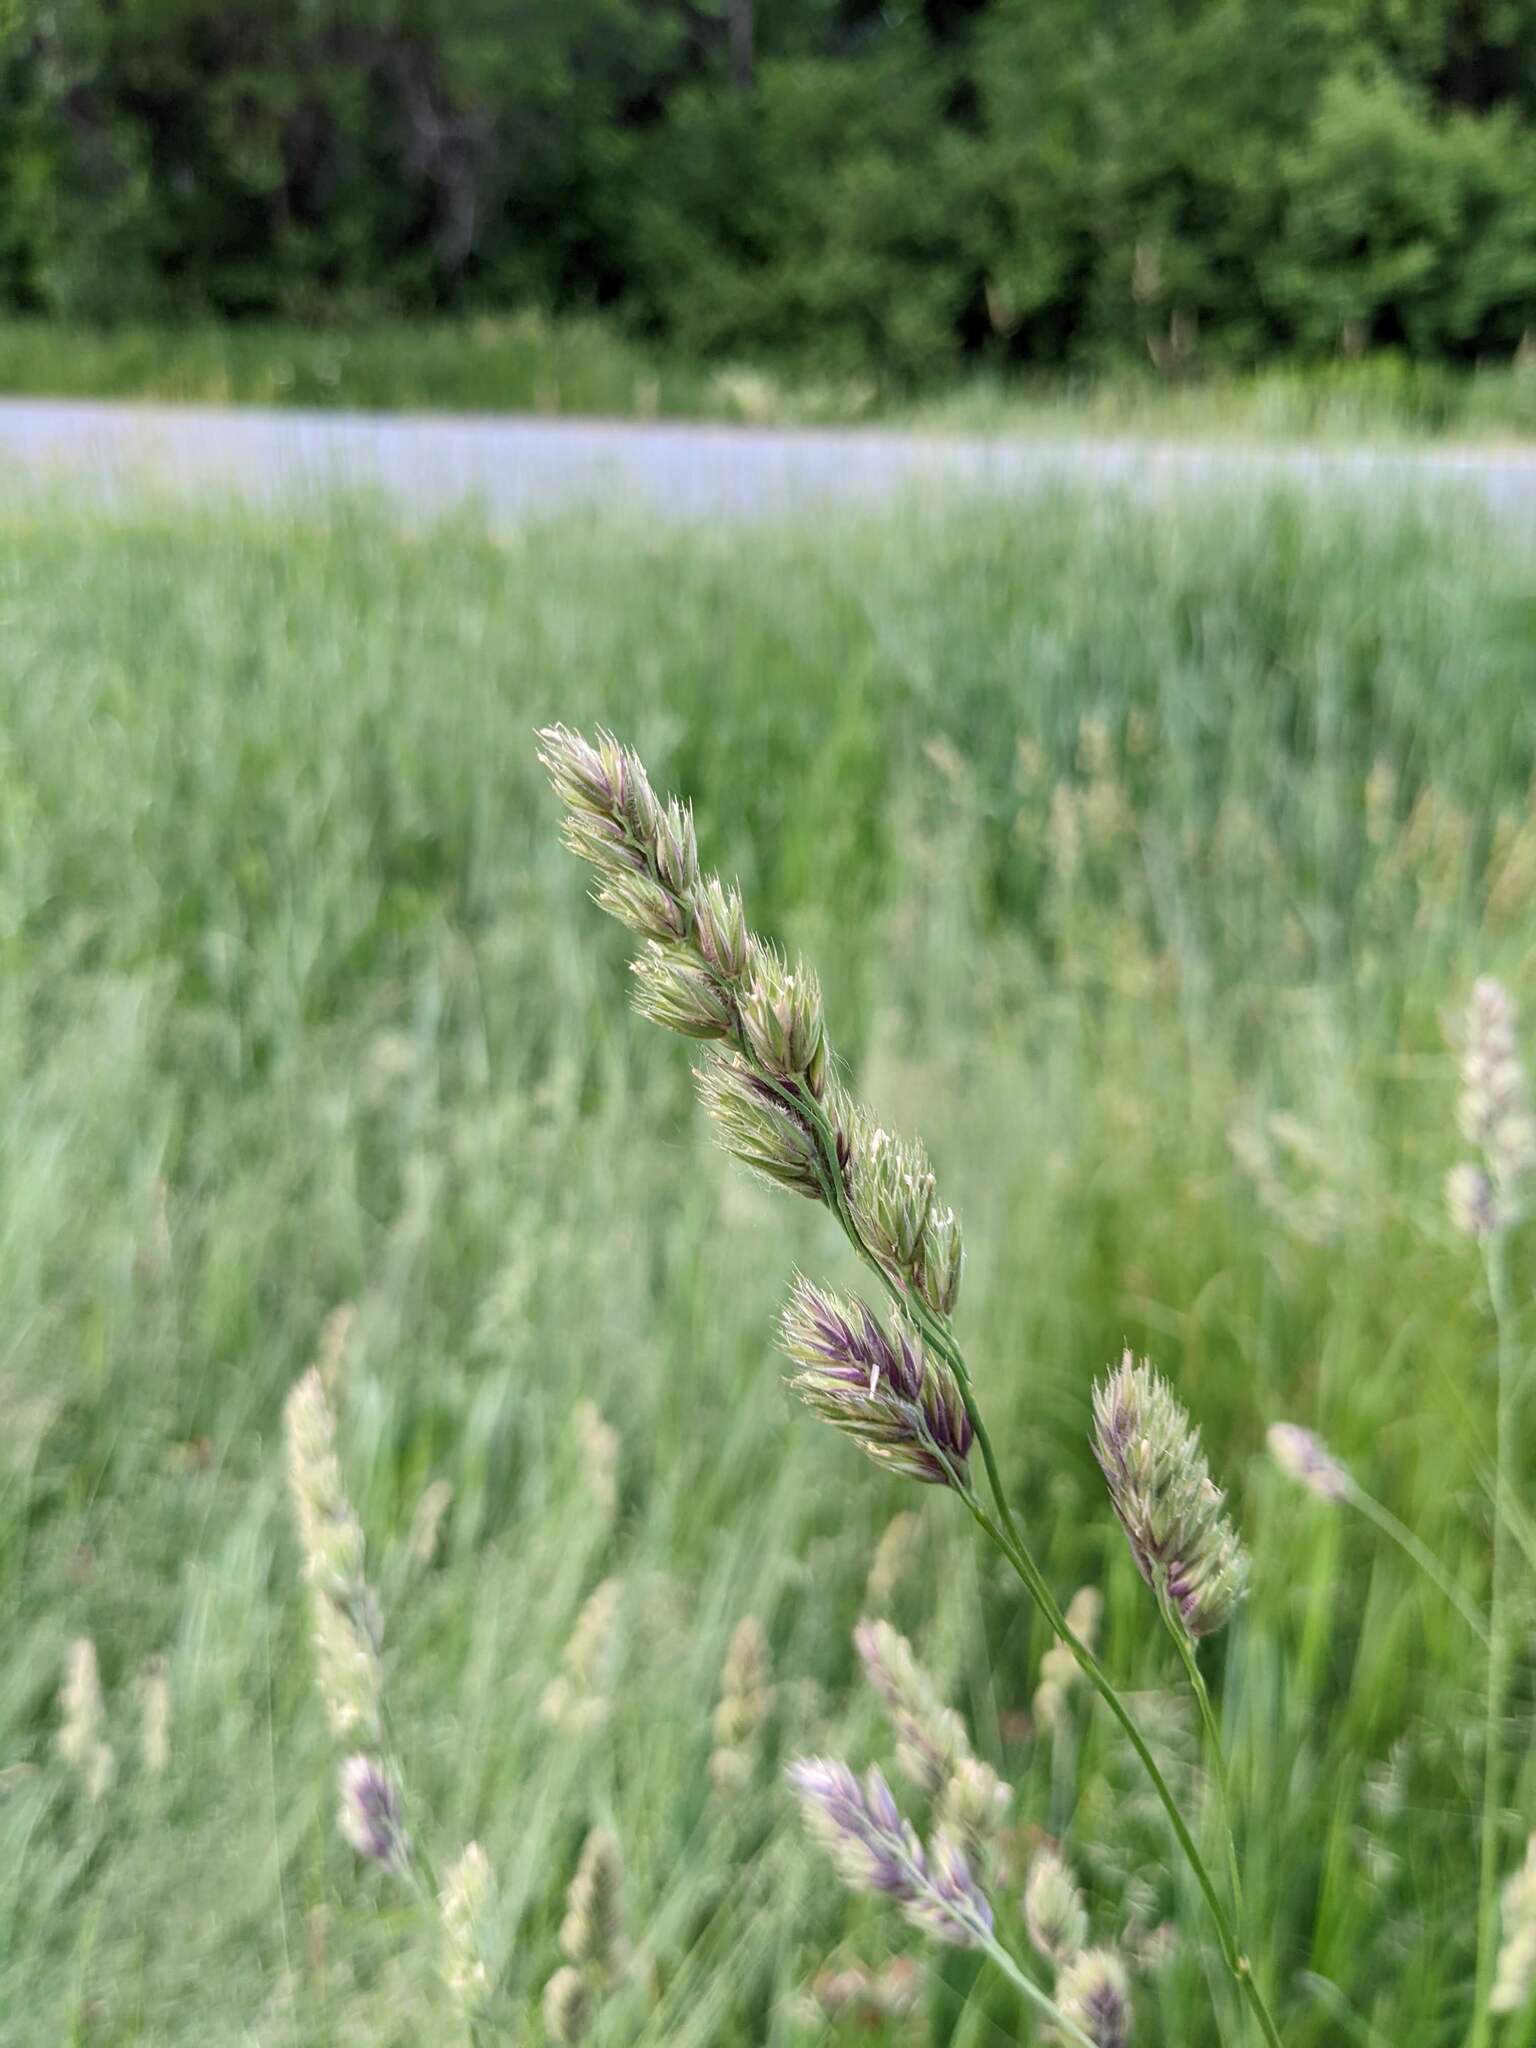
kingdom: Plantae
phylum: Tracheophyta
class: Liliopsida
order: Poales
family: Poaceae
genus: Dactylis
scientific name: Dactylis glomerata
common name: Orchardgrass
